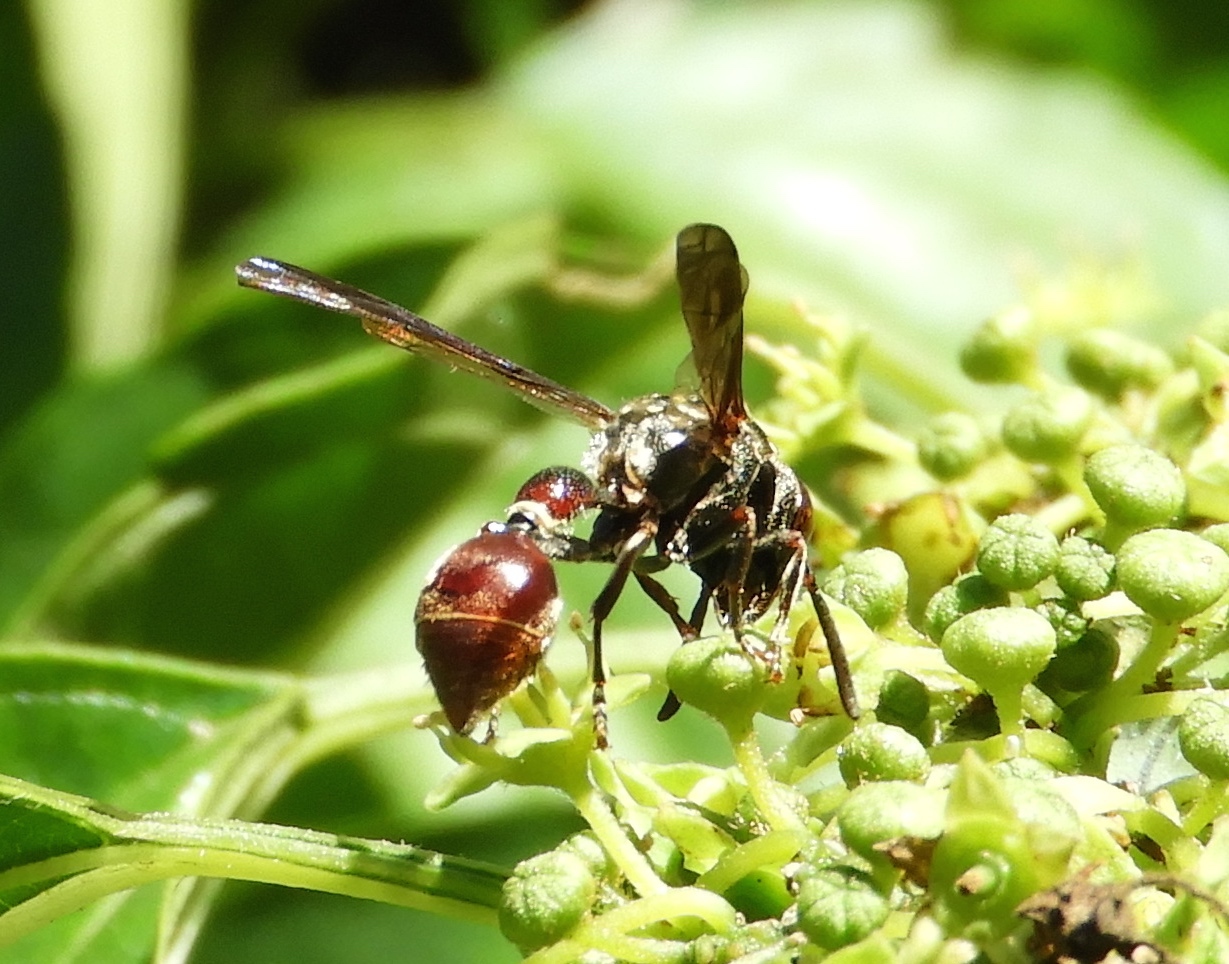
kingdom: Animalia
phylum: Arthropoda
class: Insecta
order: Hymenoptera
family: Eumenidae
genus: Zethus
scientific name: Zethus analis
